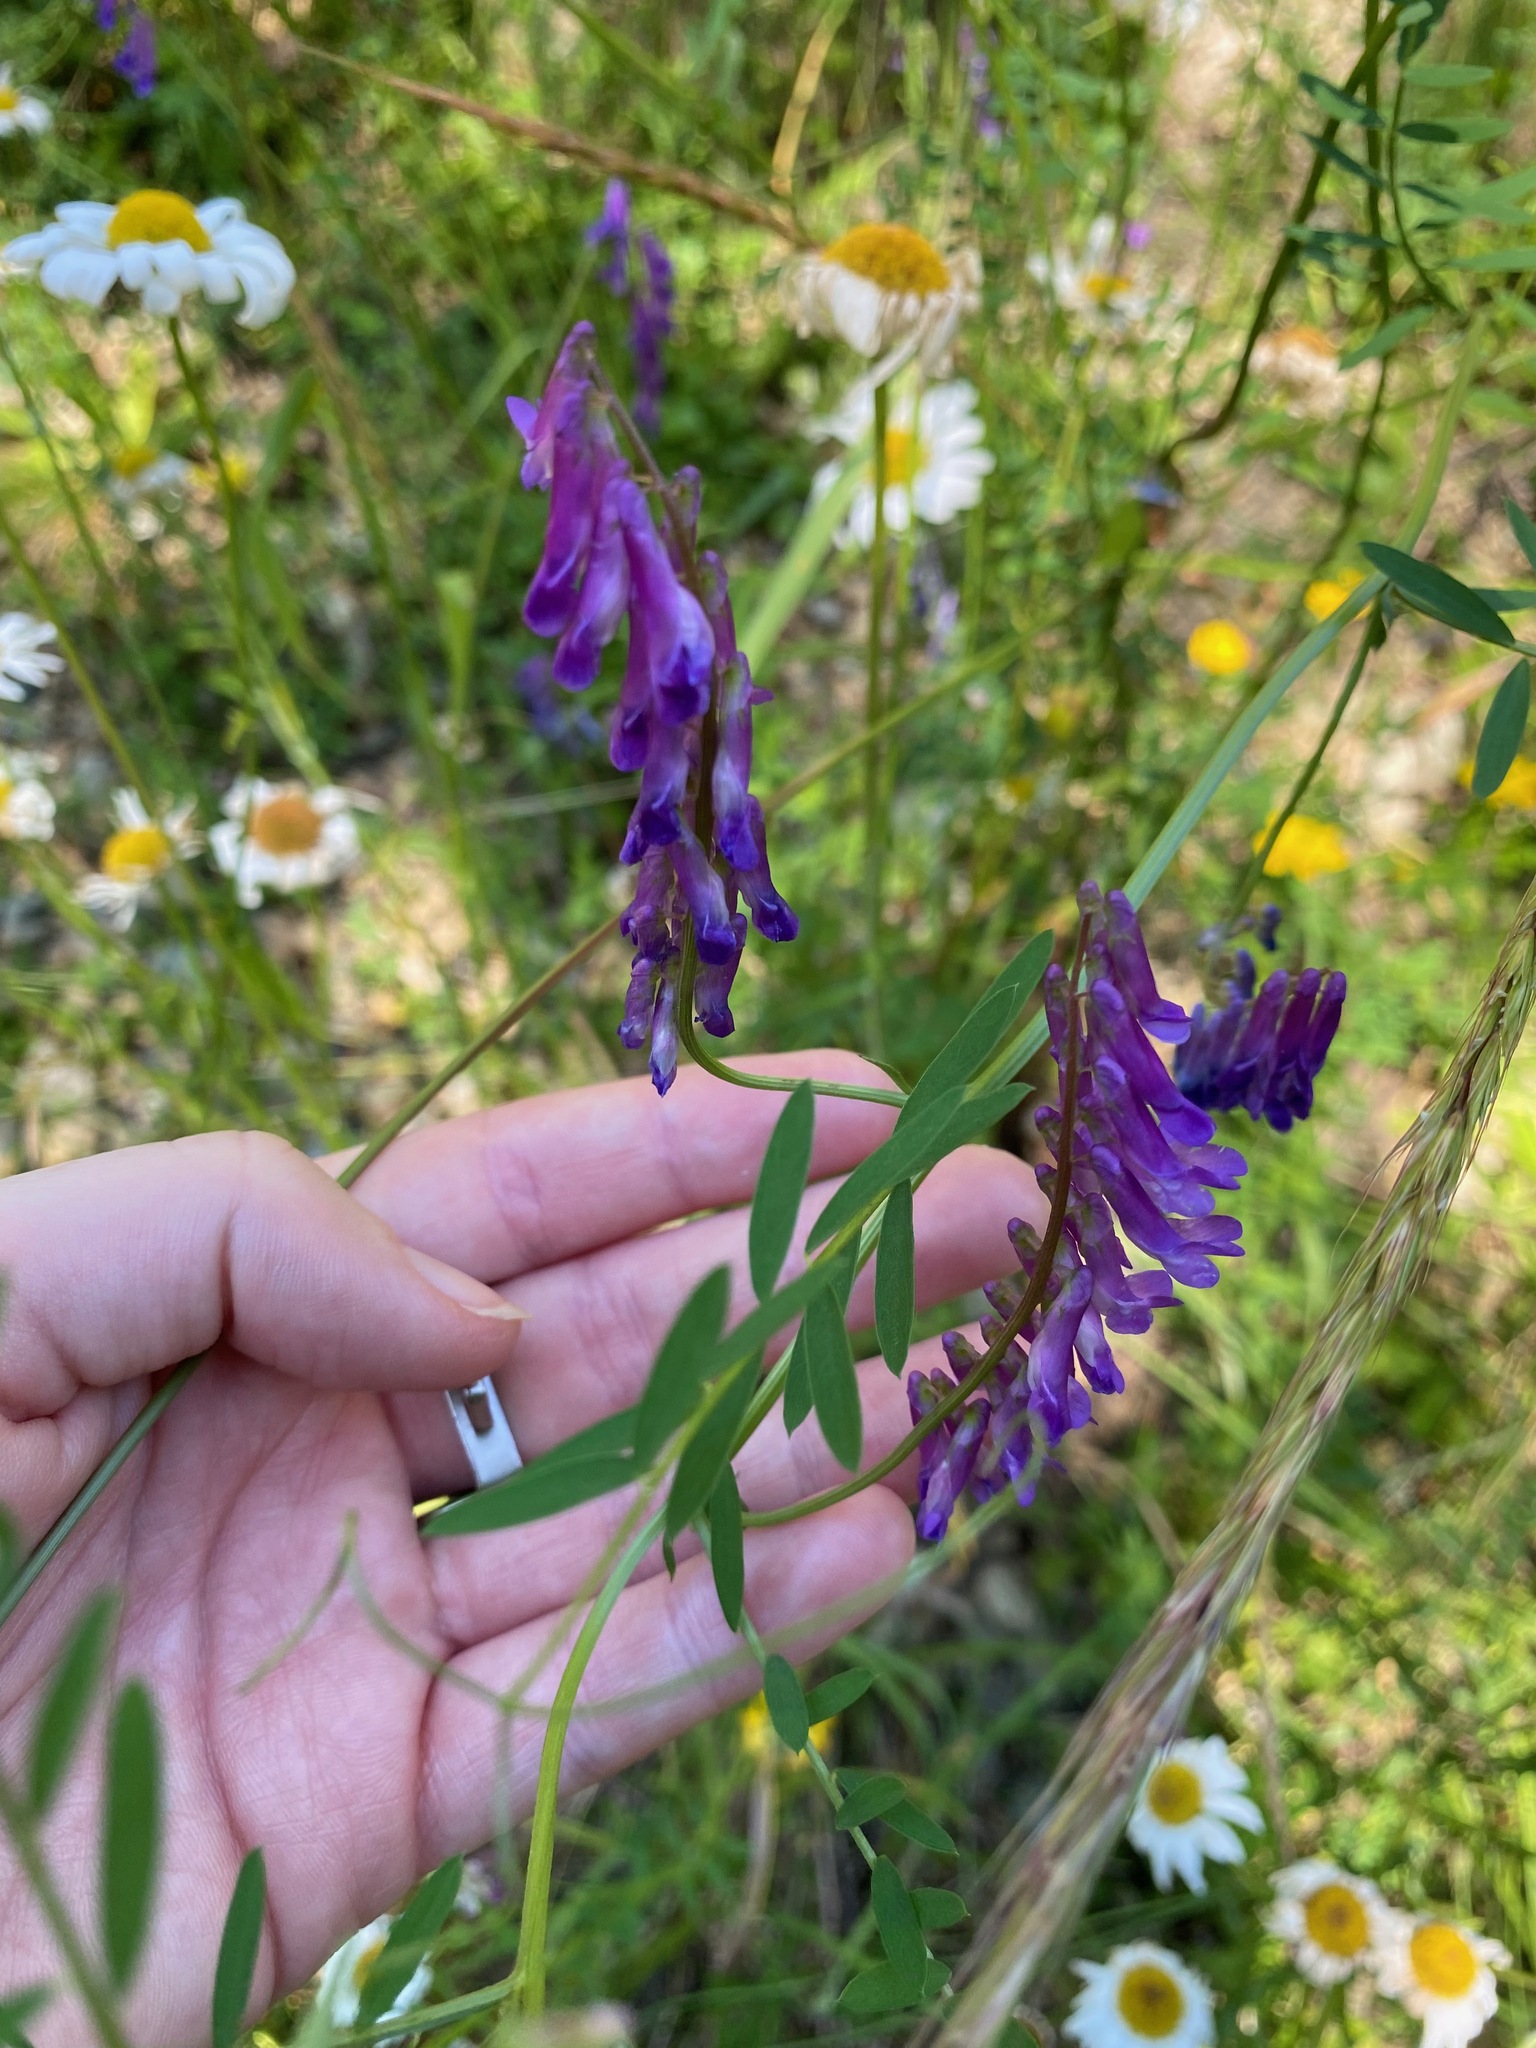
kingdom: Plantae
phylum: Tracheophyta
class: Magnoliopsida
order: Fabales
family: Fabaceae
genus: Vicia
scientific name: Vicia villosa
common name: Fodder vetch
